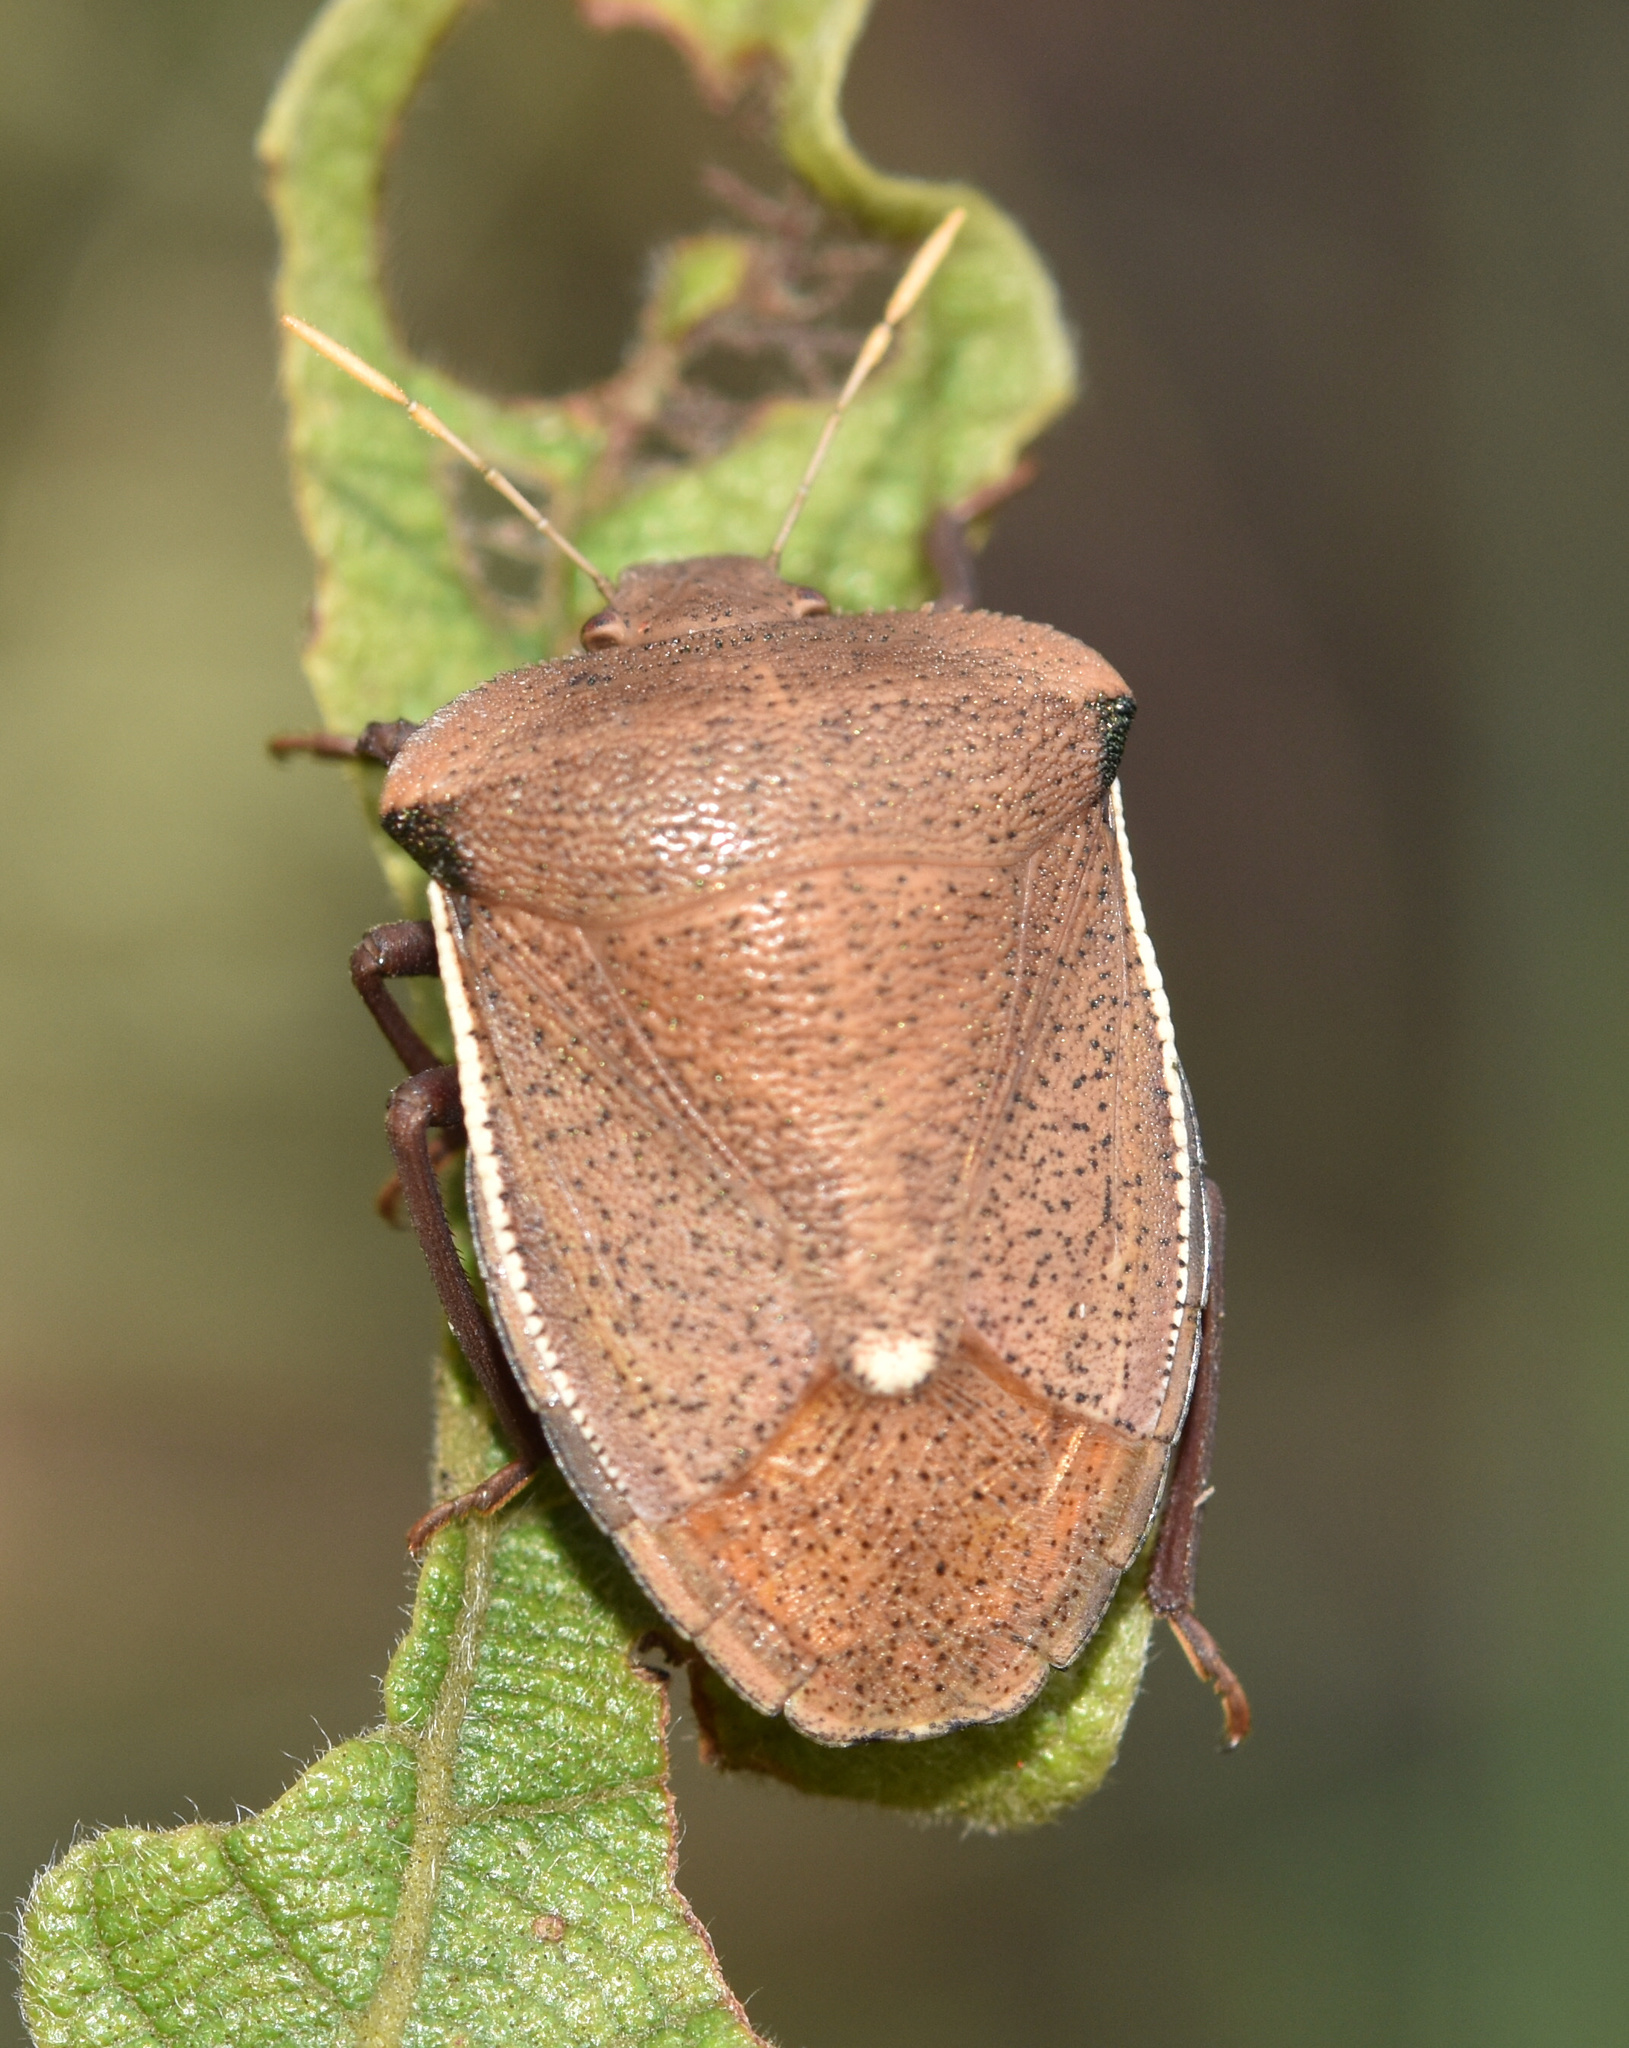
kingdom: Animalia
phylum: Arthropoda
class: Insecta
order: Hemiptera
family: Pentatomidae
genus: Basicryptus
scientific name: Basicryptus costalis
